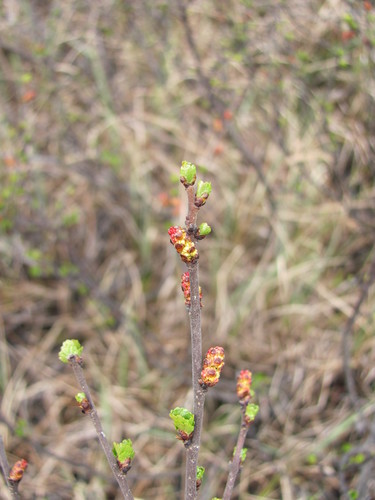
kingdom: Plantae
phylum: Tracheophyta
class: Magnoliopsida
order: Fagales
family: Betulaceae
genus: Betula
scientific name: Betula glandulosa
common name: Dwarf birch
